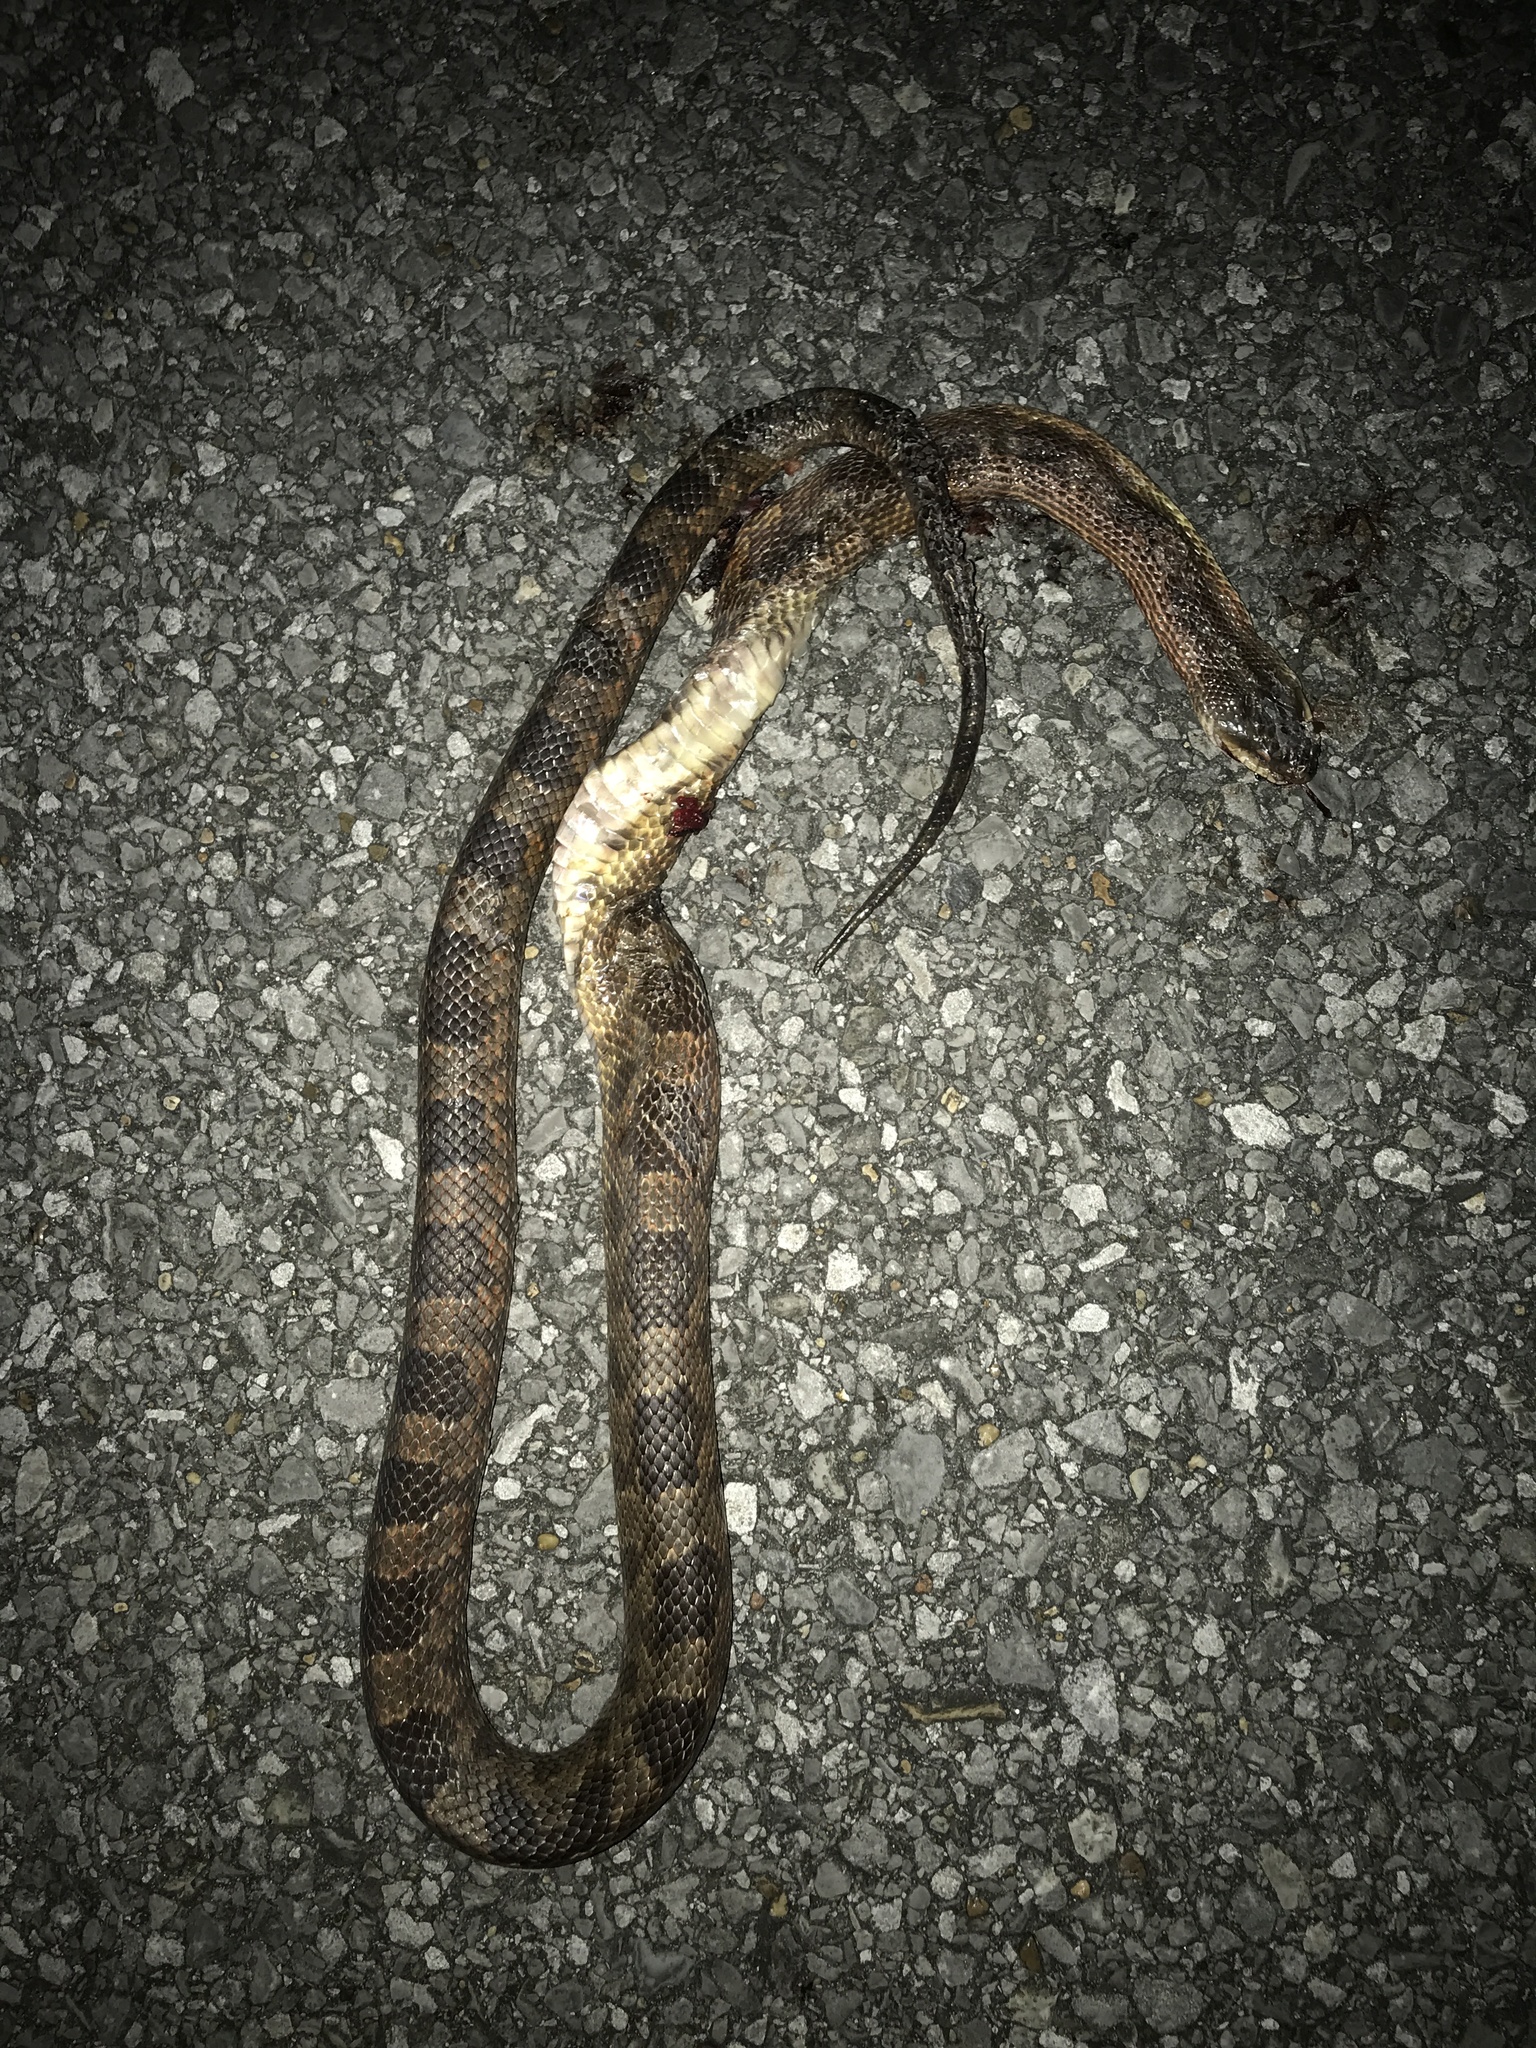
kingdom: Animalia
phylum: Chordata
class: Squamata
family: Colubridae
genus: Pantherophis
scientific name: Pantherophis obsoletus
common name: Black rat snake
